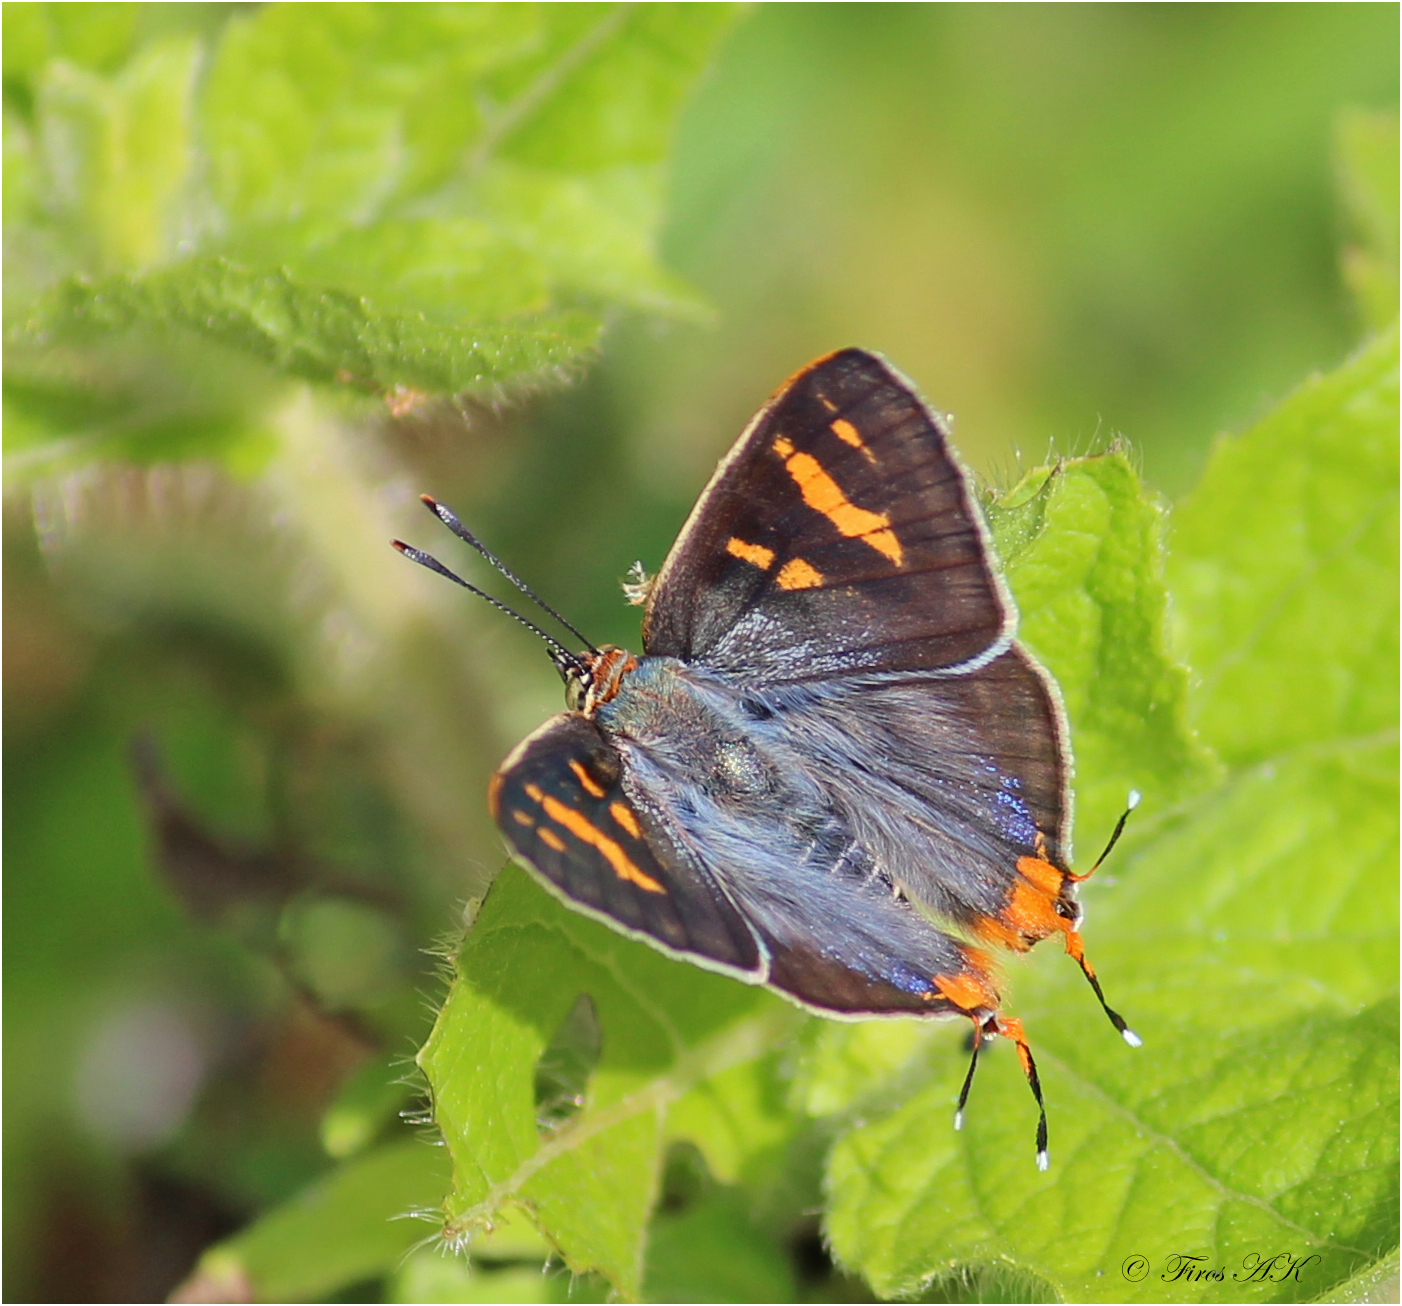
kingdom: Animalia
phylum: Arthropoda
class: Insecta
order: Lepidoptera
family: Lycaenidae
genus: Cigaritis
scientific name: Cigaritis
